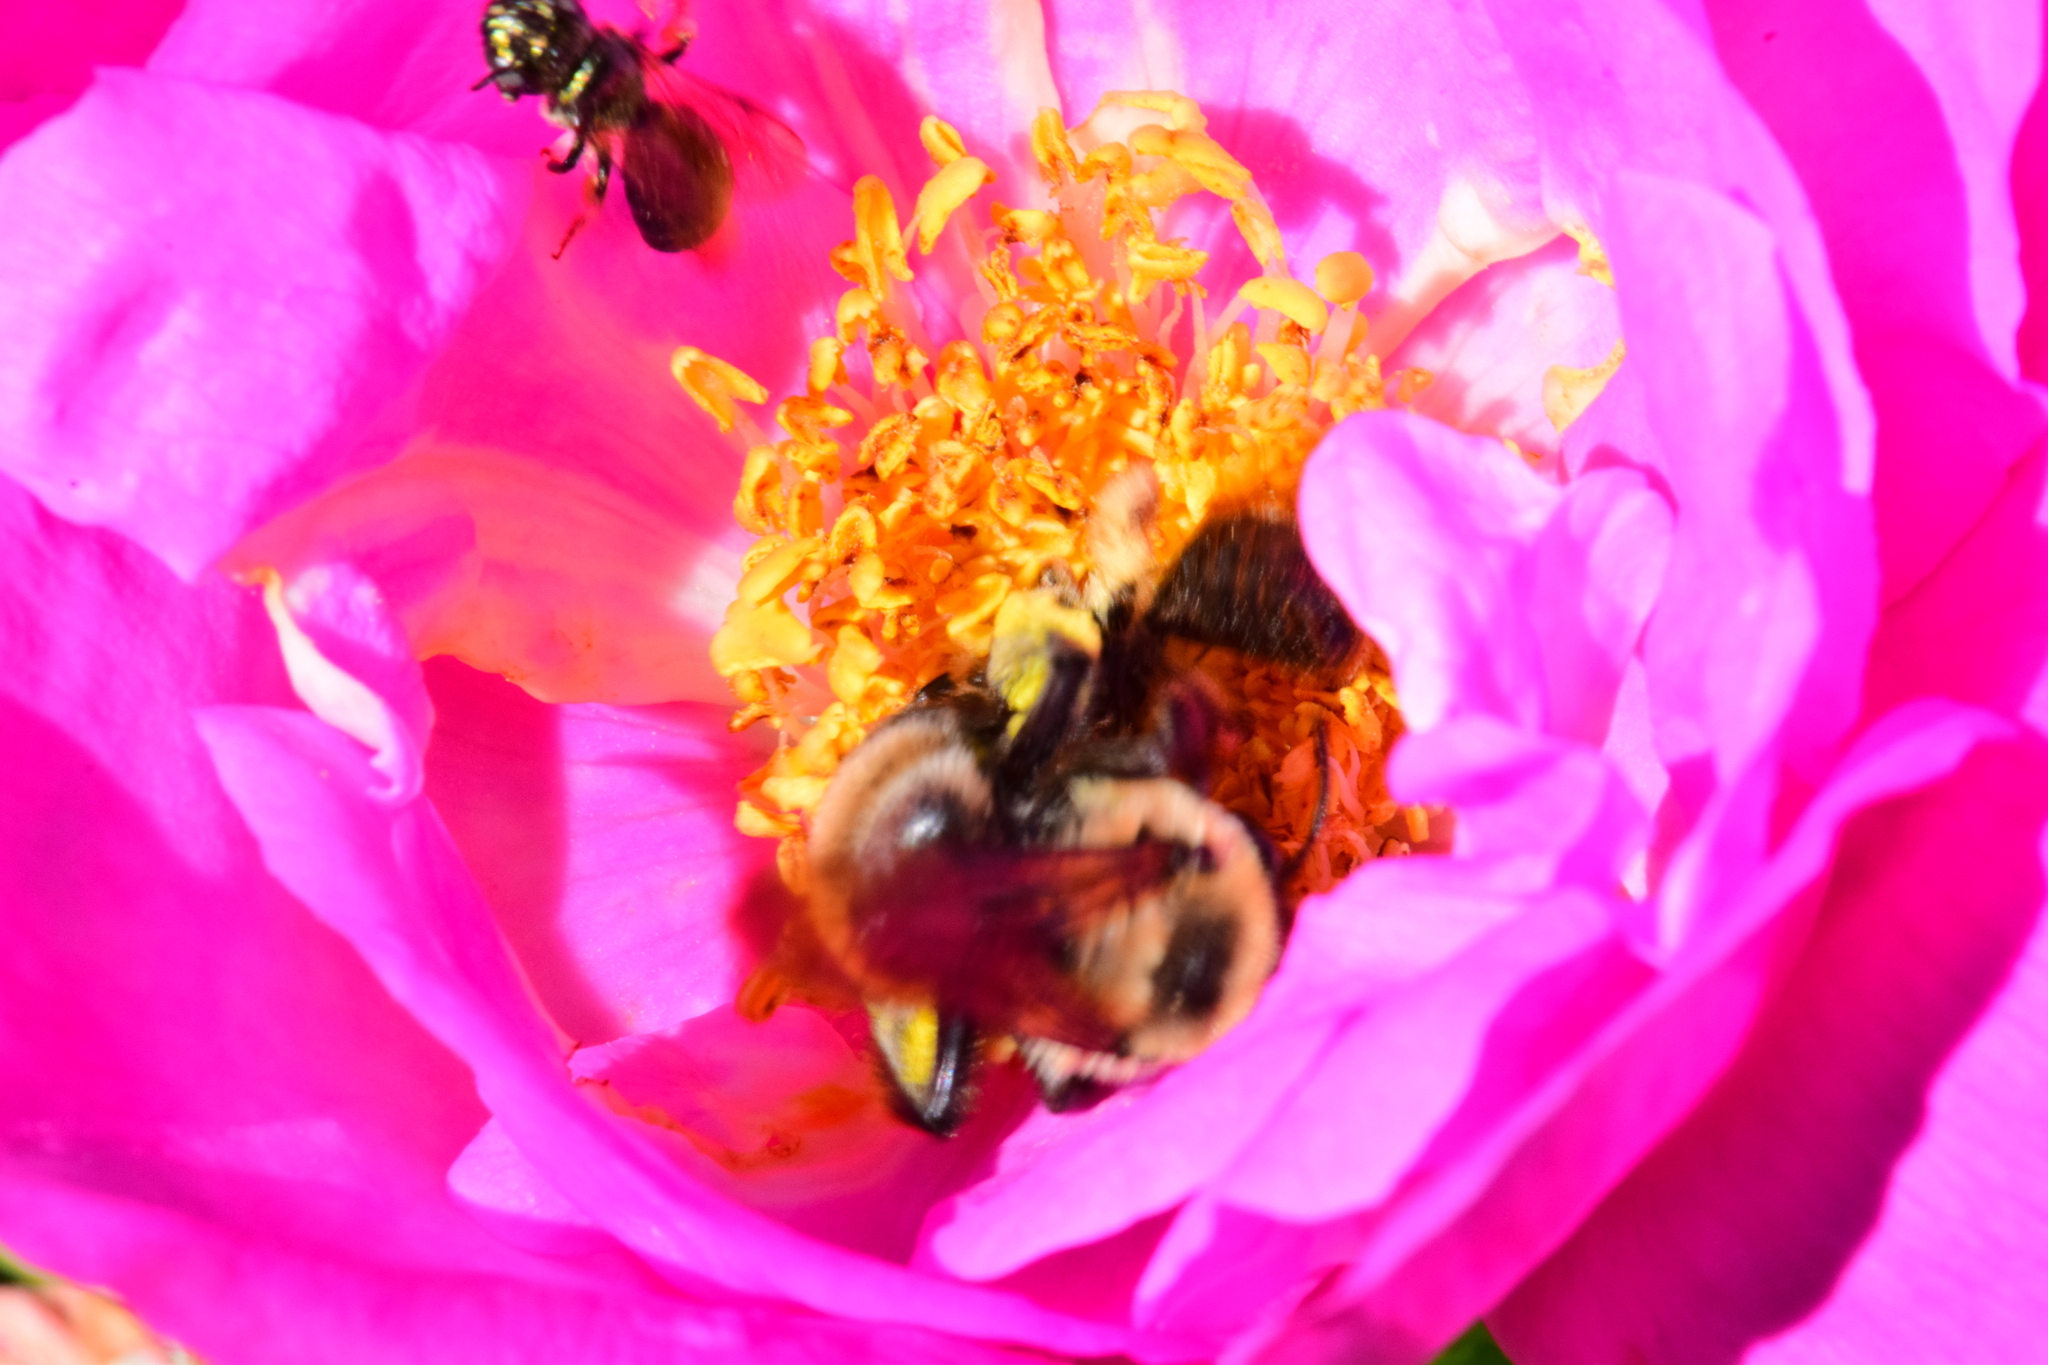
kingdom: Animalia
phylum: Arthropoda
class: Insecta
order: Hymenoptera
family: Apidae
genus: Anthophora
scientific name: Anthophora bomboides
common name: Bumble-bee-mimic digger bee
